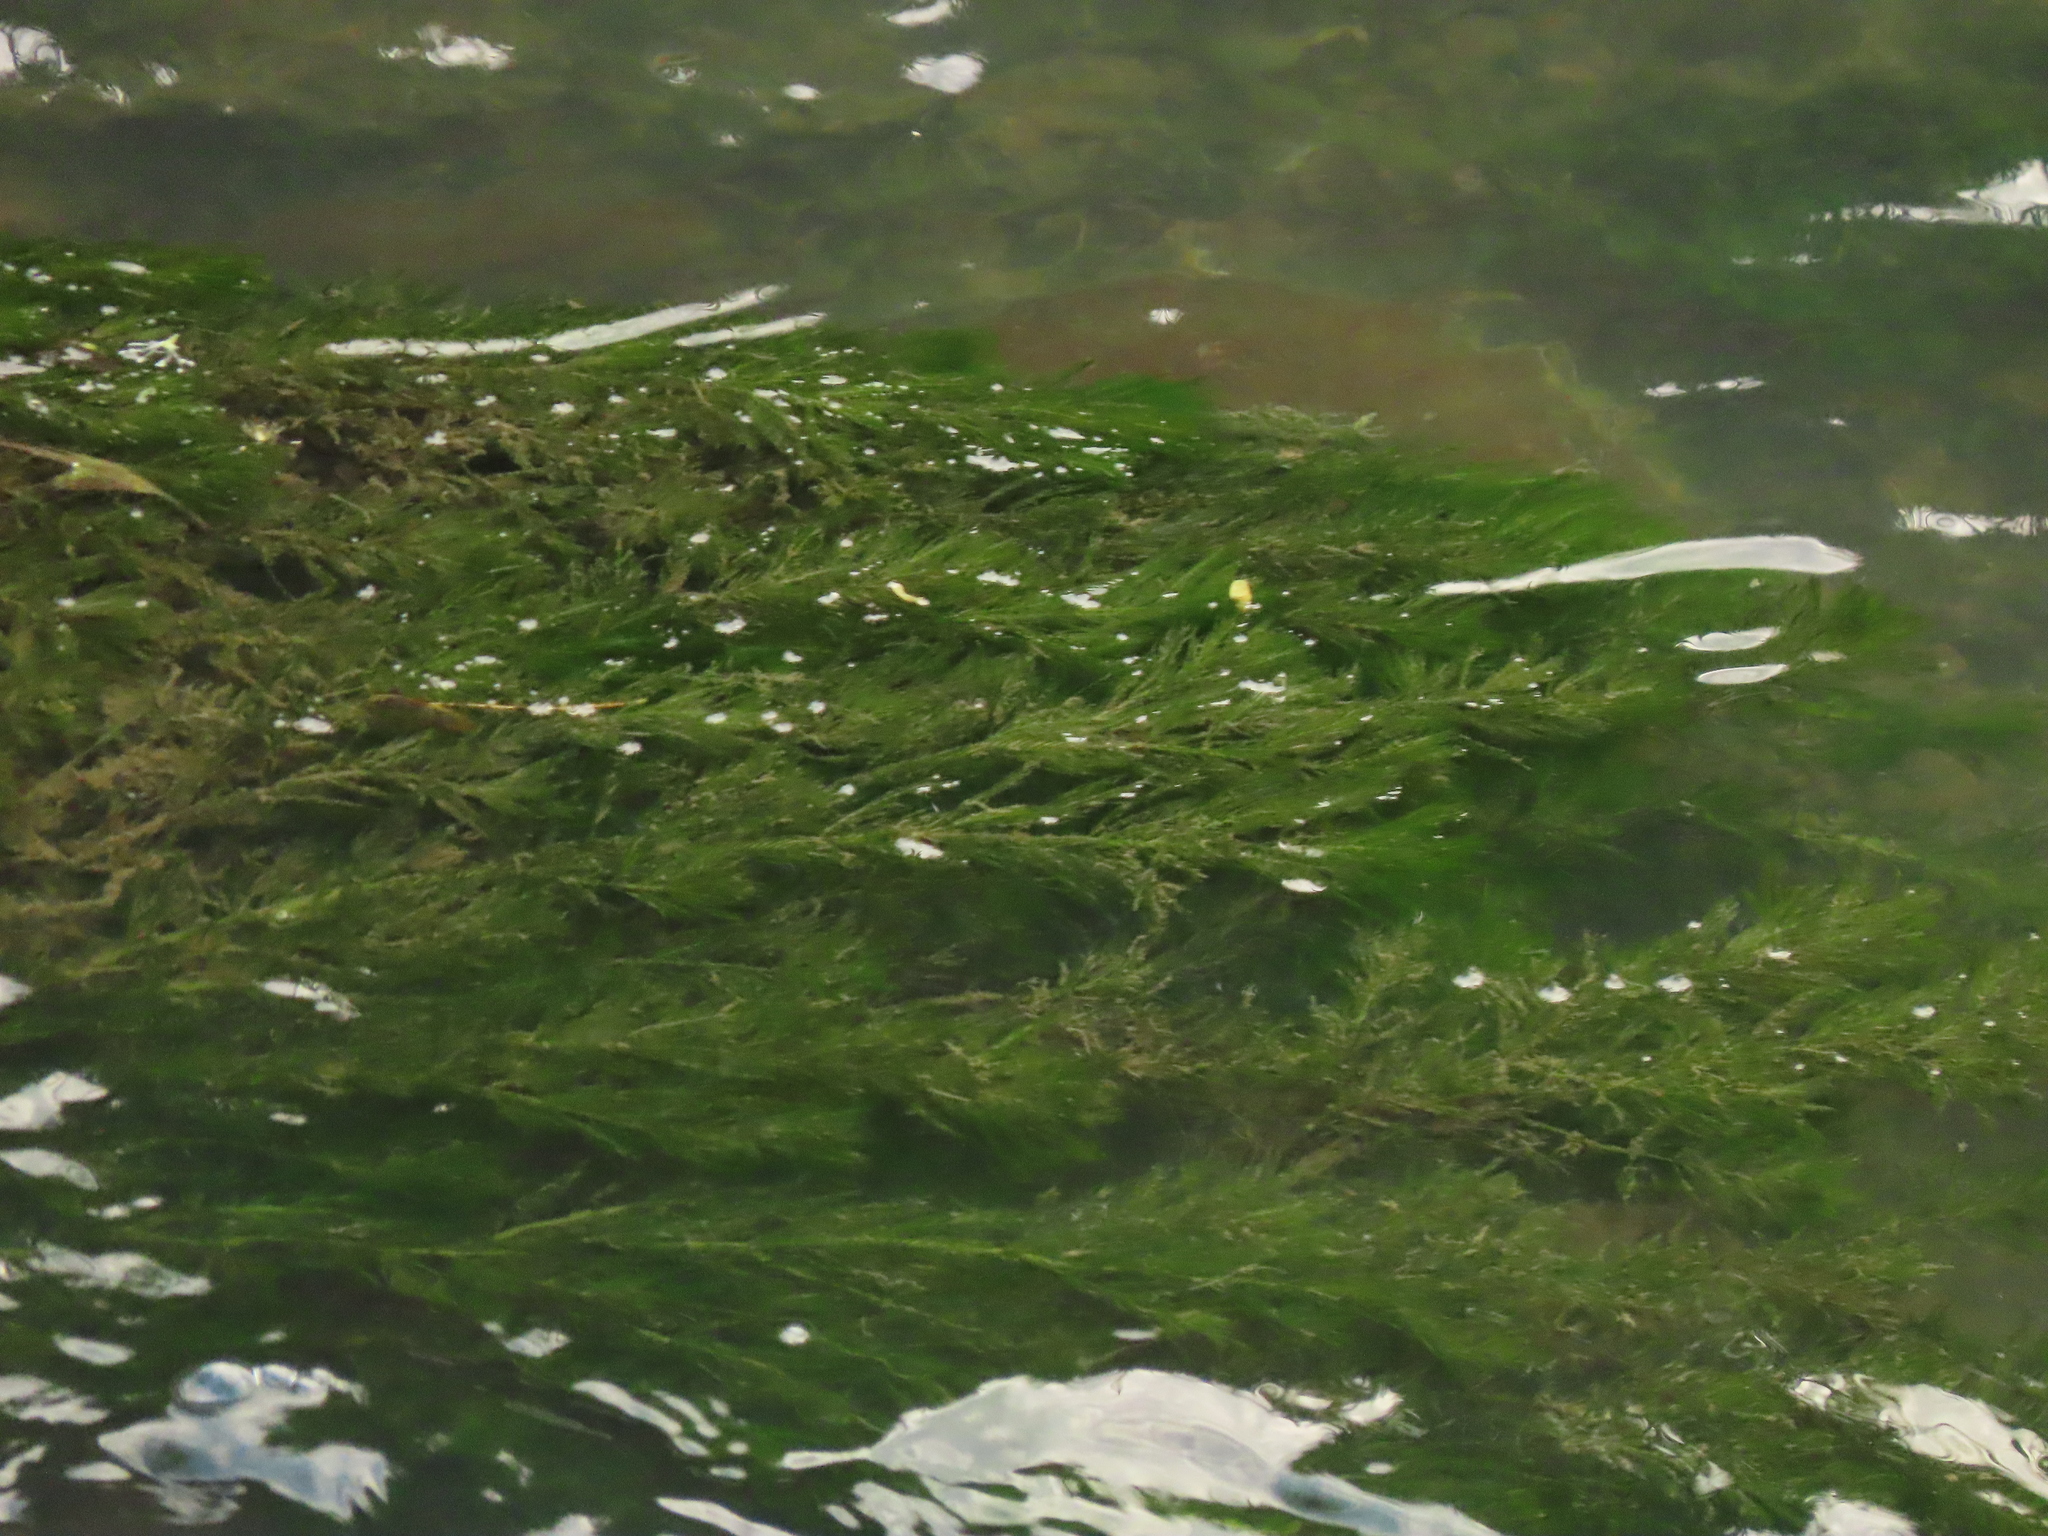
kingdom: Plantae
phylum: Tracheophyta
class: Magnoliopsida
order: Saxifragales
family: Haloragaceae
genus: Myriophyllum
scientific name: Myriophyllum spicatum
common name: Spiked water-milfoil
